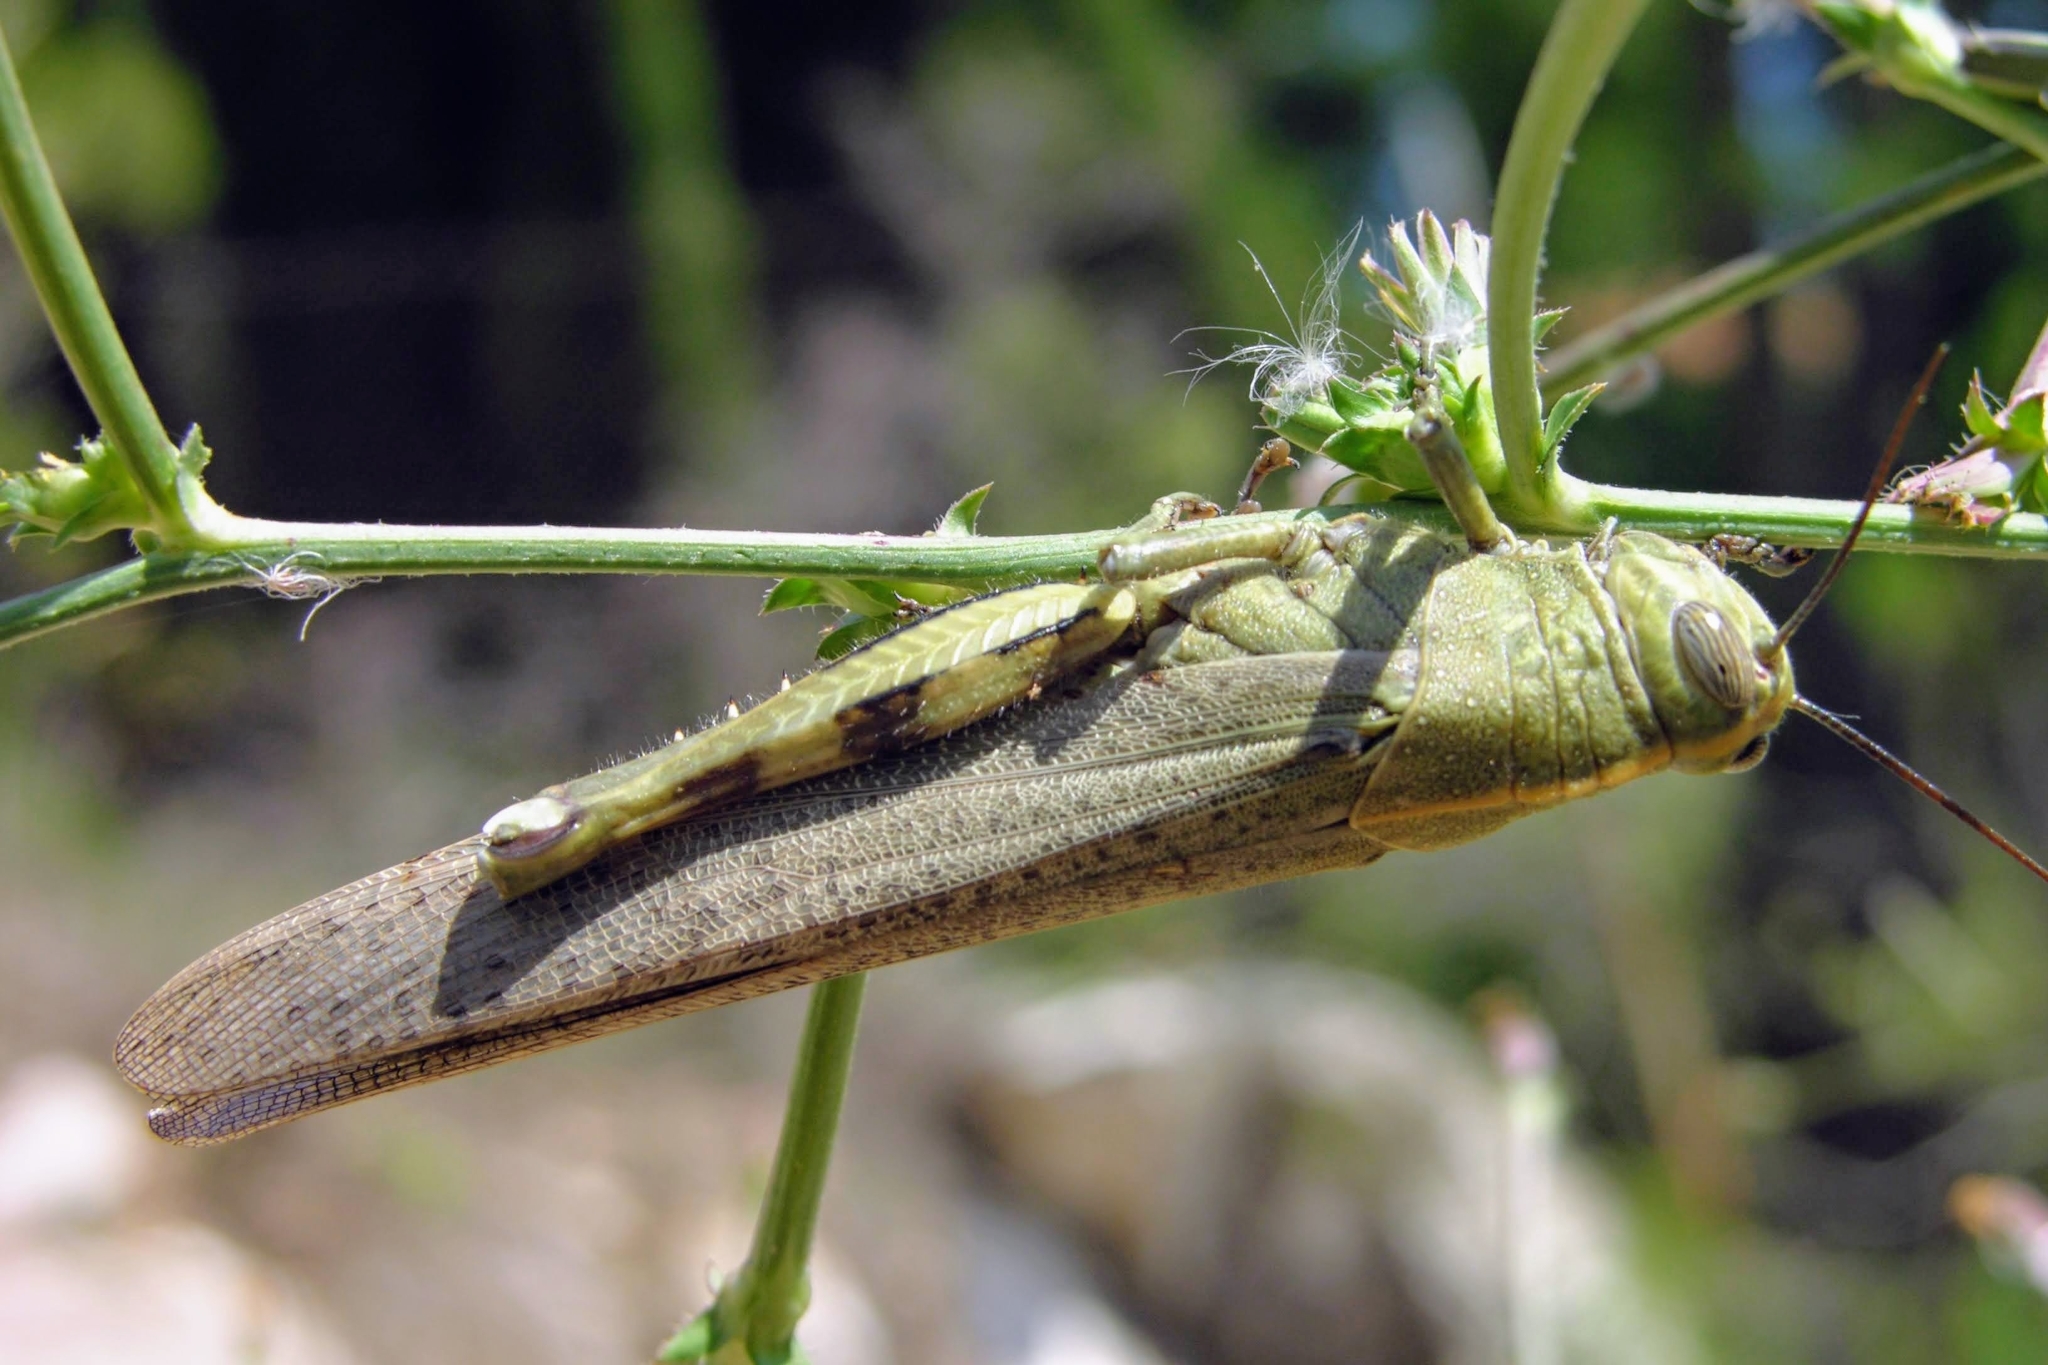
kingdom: Animalia
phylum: Arthropoda
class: Insecta
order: Orthoptera
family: Acrididae
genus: Anacridium
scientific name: Anacridium aegyptium
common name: Egyptian grasshopper
